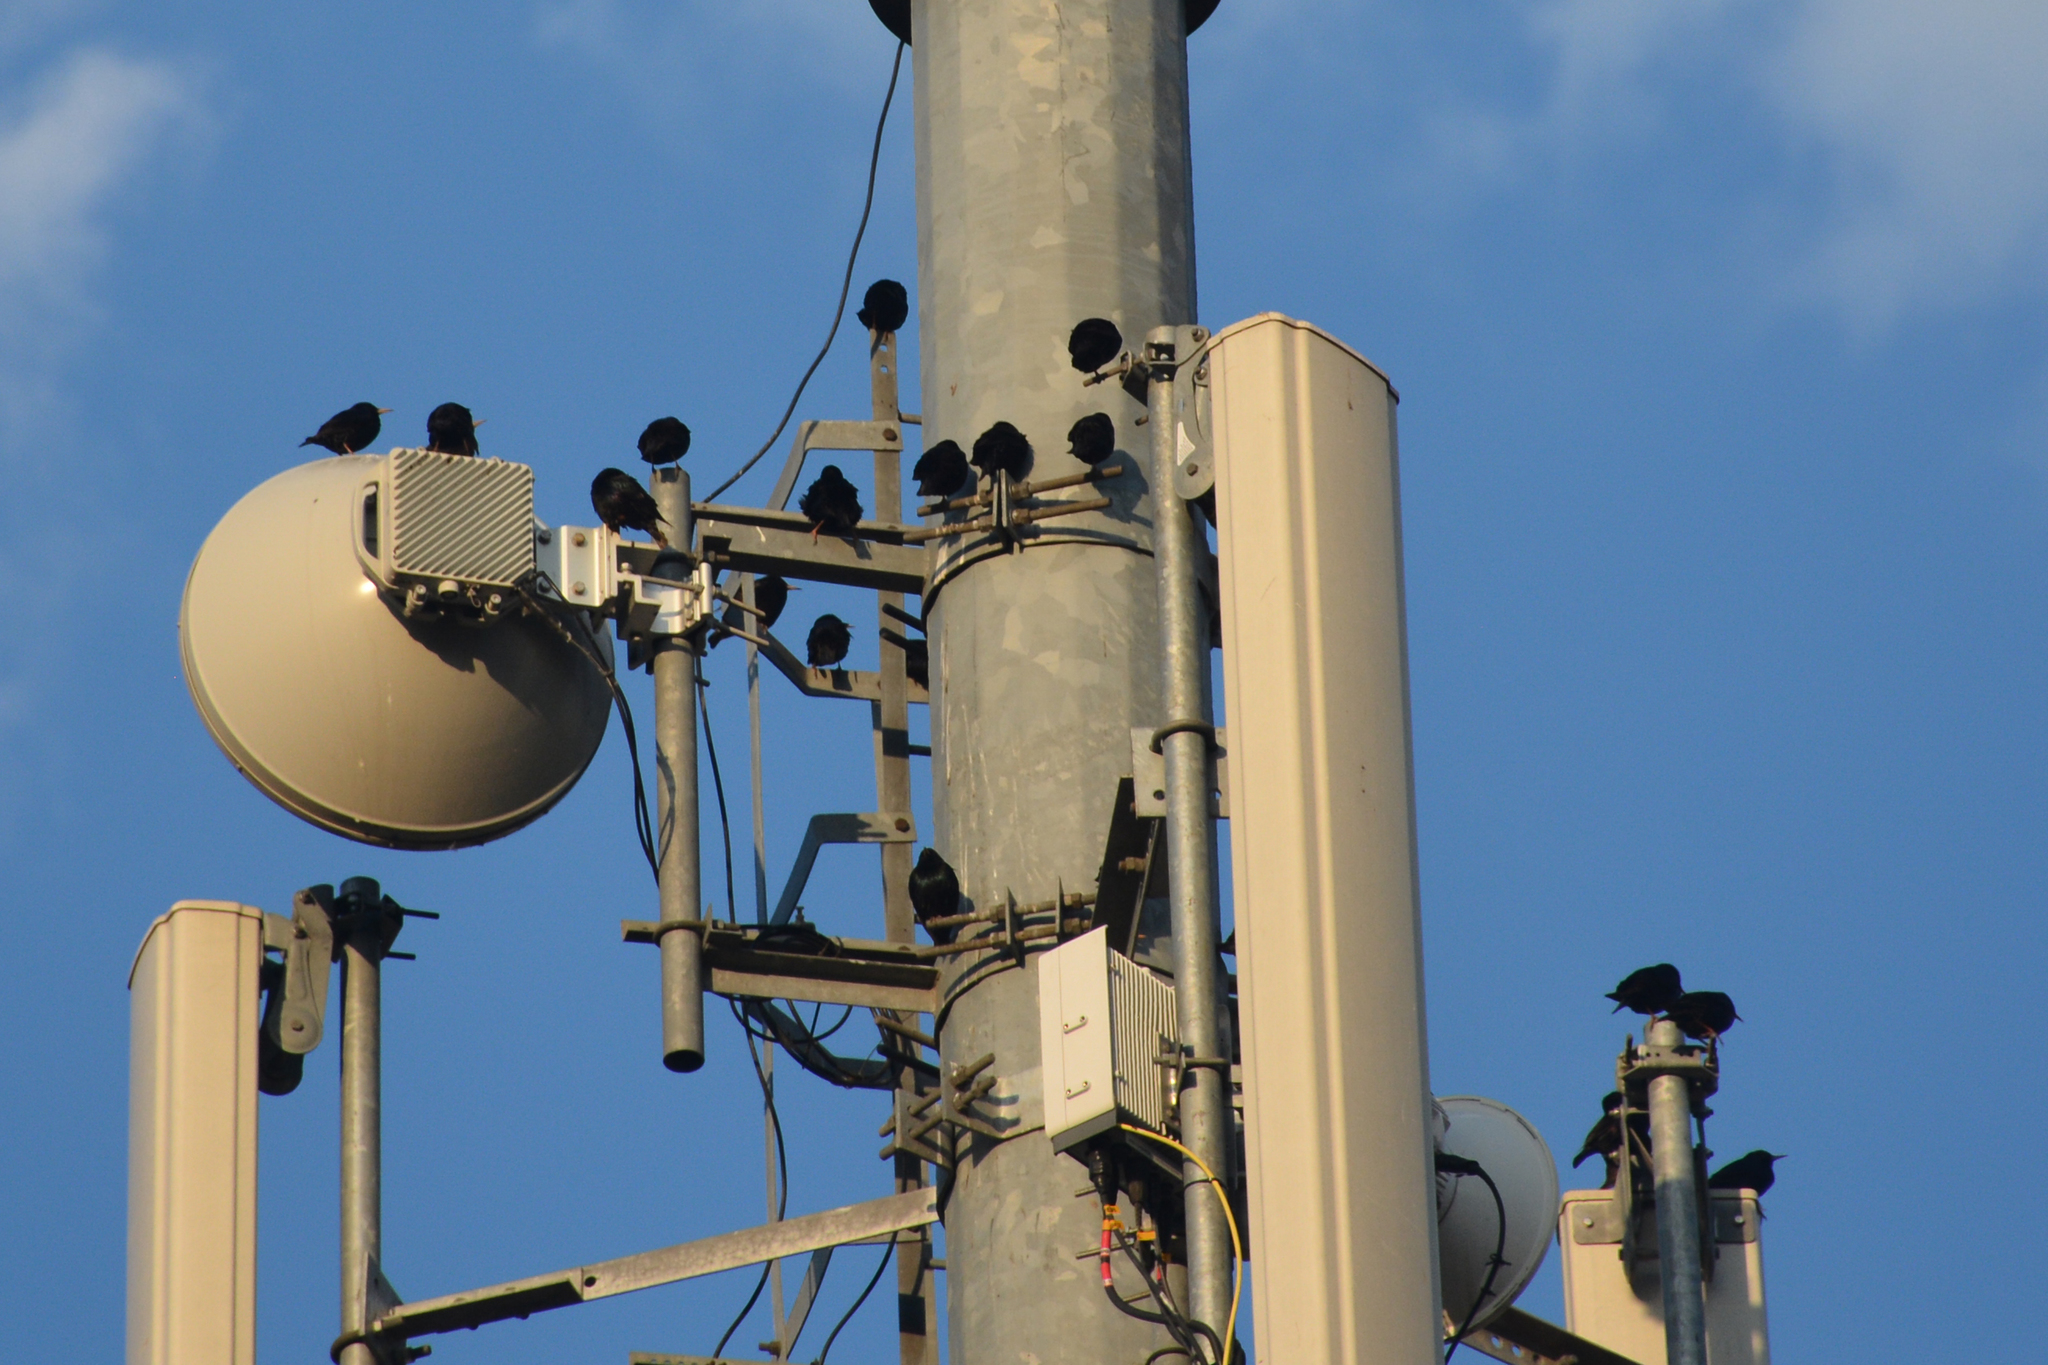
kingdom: Animalia
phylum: Chordata
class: Aves
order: Passeriformes
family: Corvidae
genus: Pyrrhocorax
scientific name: Pyrrhocorax pyrrhocorax
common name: Red-billed chough
